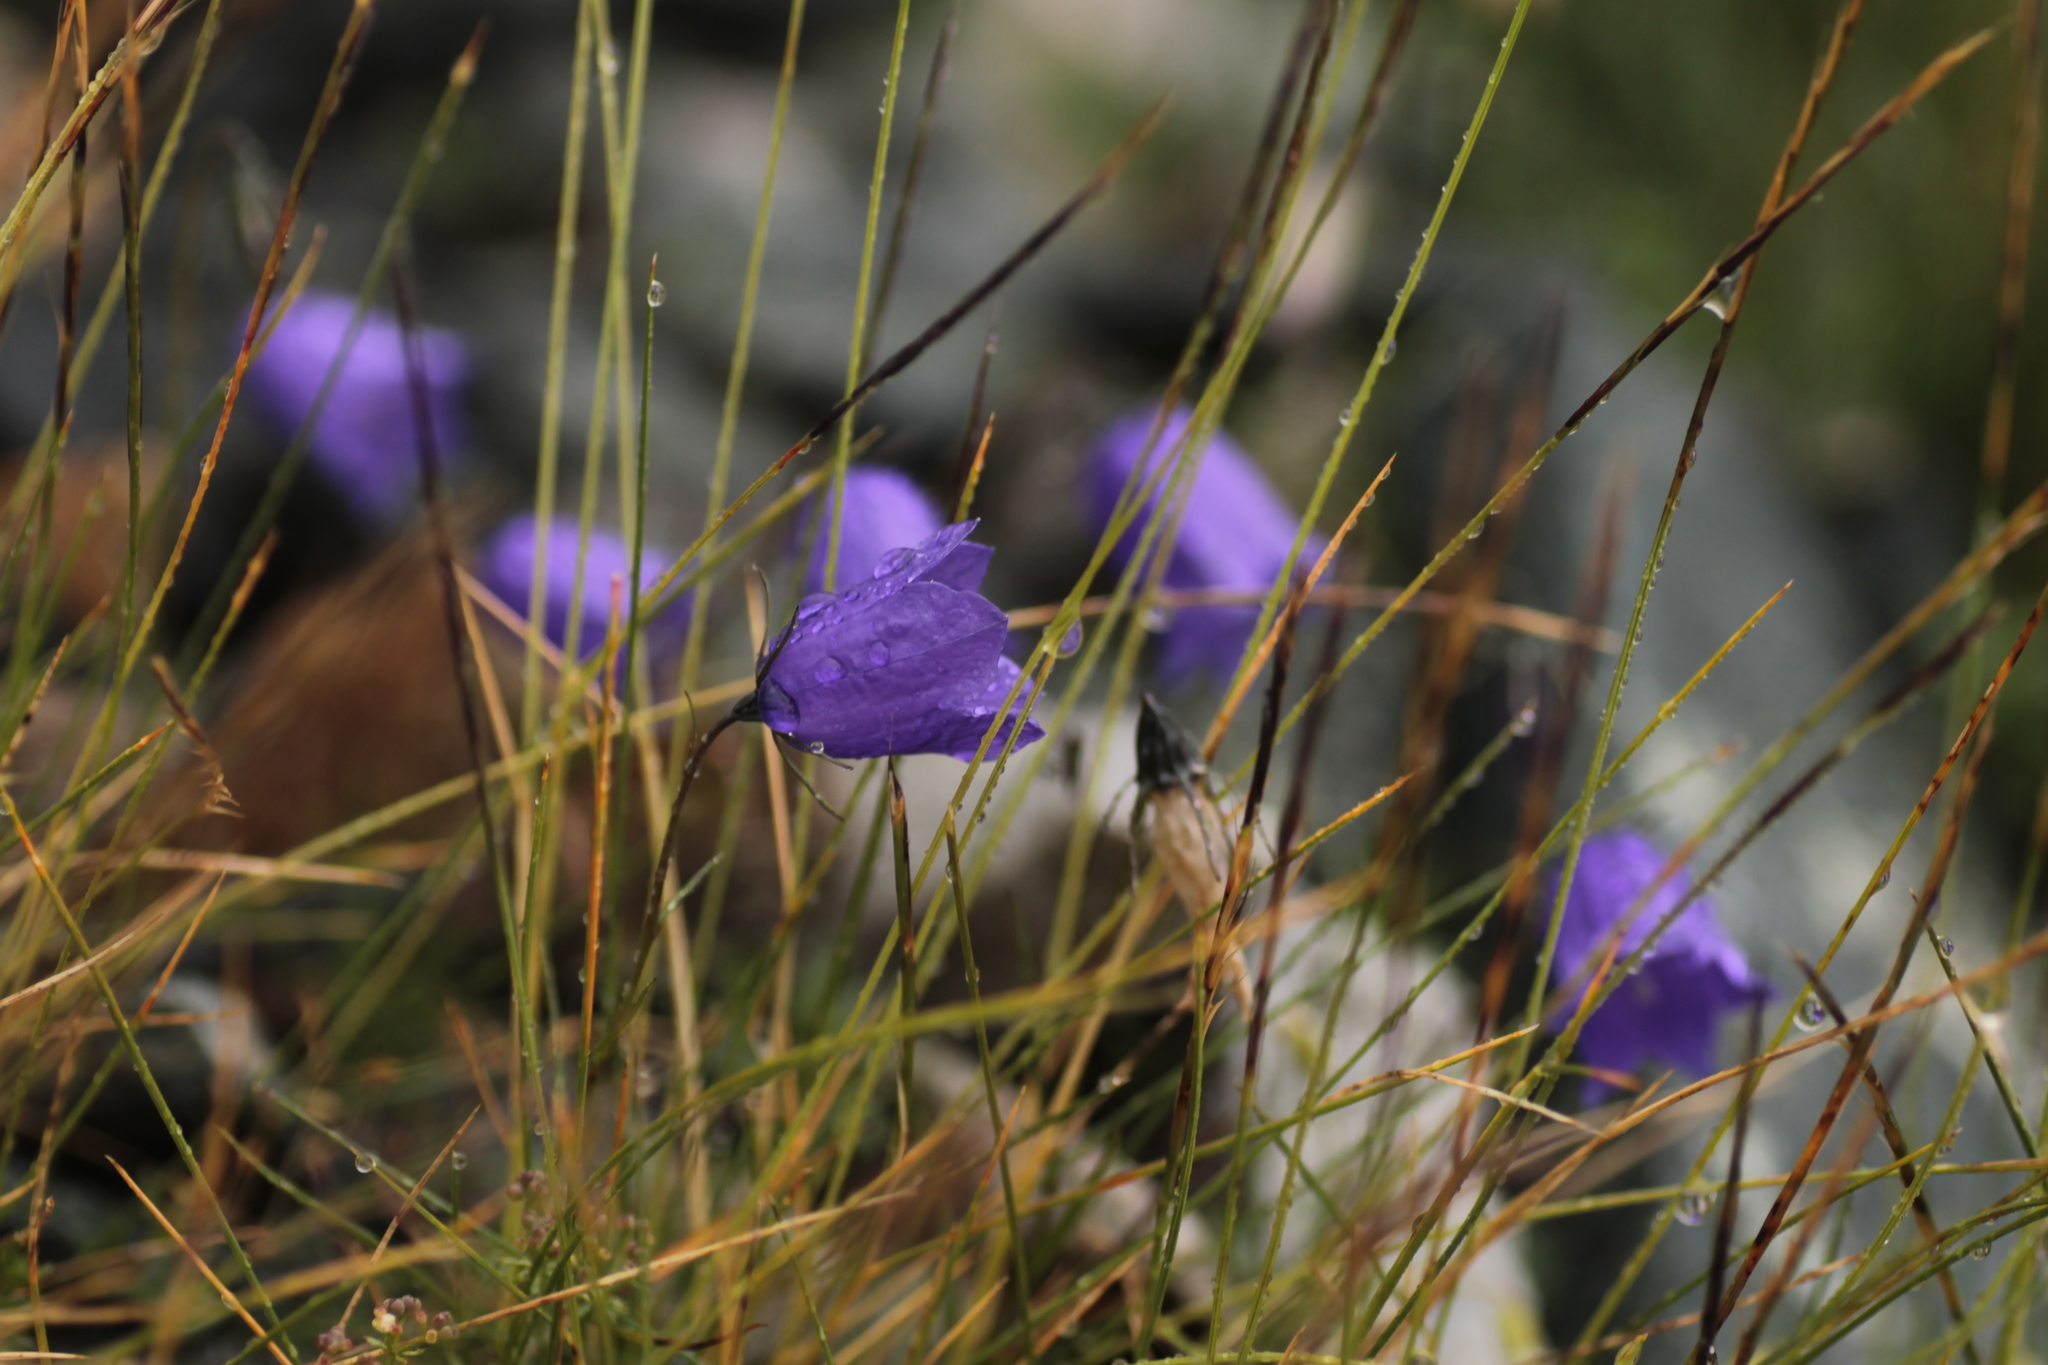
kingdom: Plantae
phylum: Tracheophyta
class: Magnoliopsida
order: Asterales
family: Campanulaceae
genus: Campanula
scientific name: Campanula scheuchzeri
